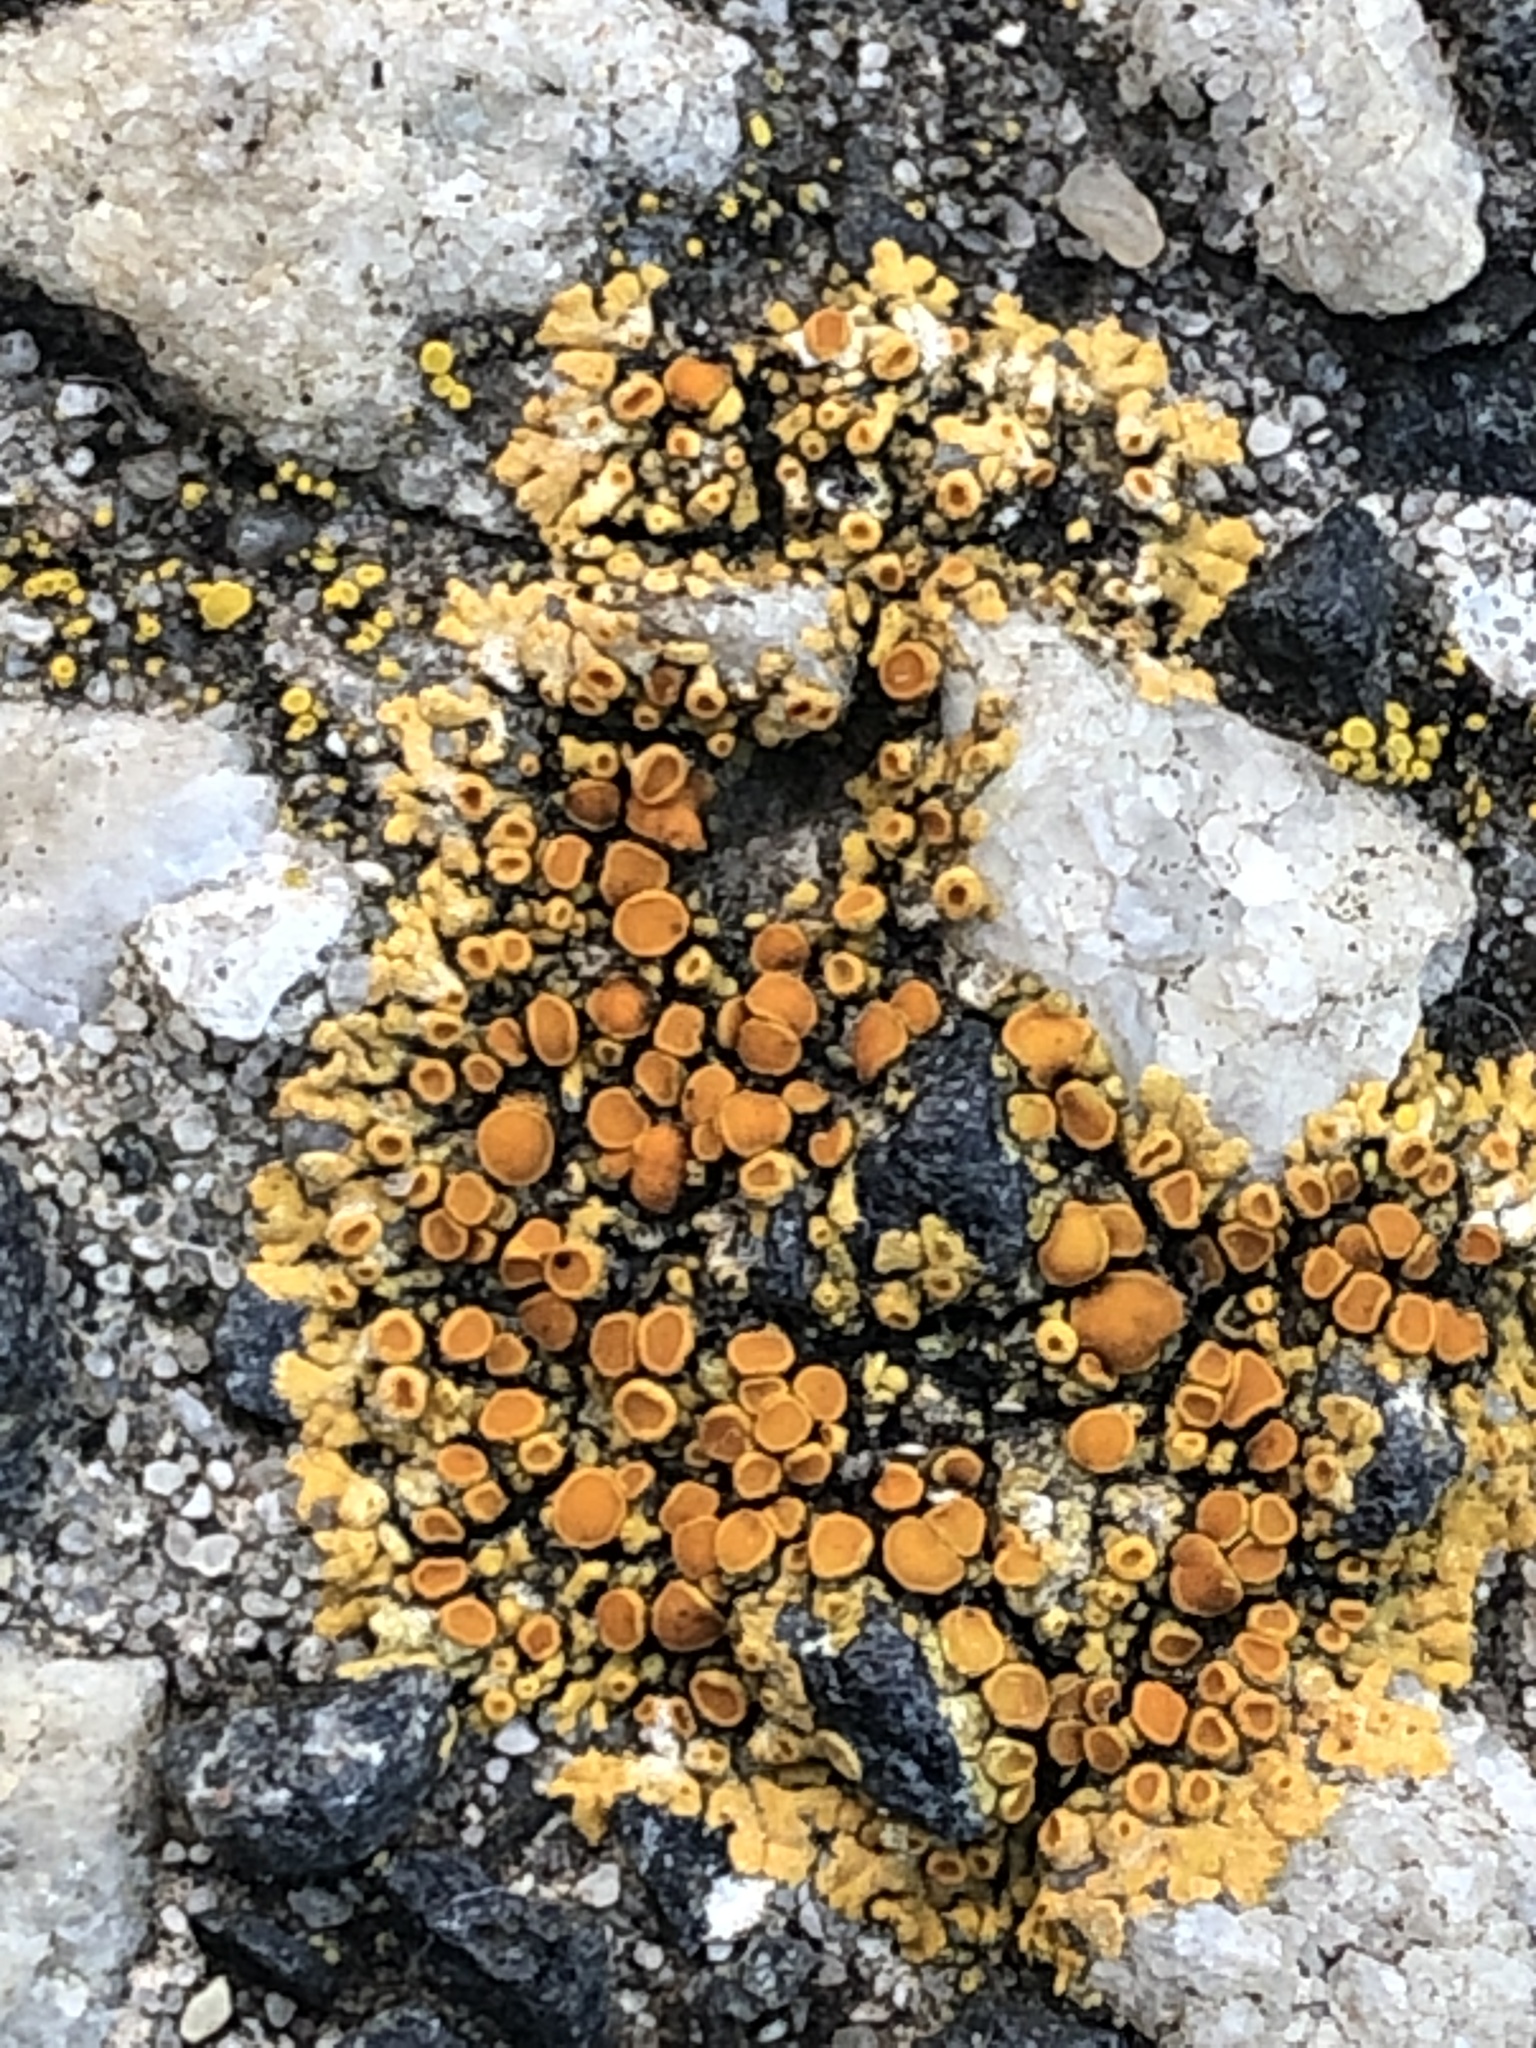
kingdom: Fungi
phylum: Ascomycota
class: Lecanoromycetes
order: Teloschistales
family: Teloschistaceae
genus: Calogaya
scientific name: Calogaya saxicola
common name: Rock jewel lichen
